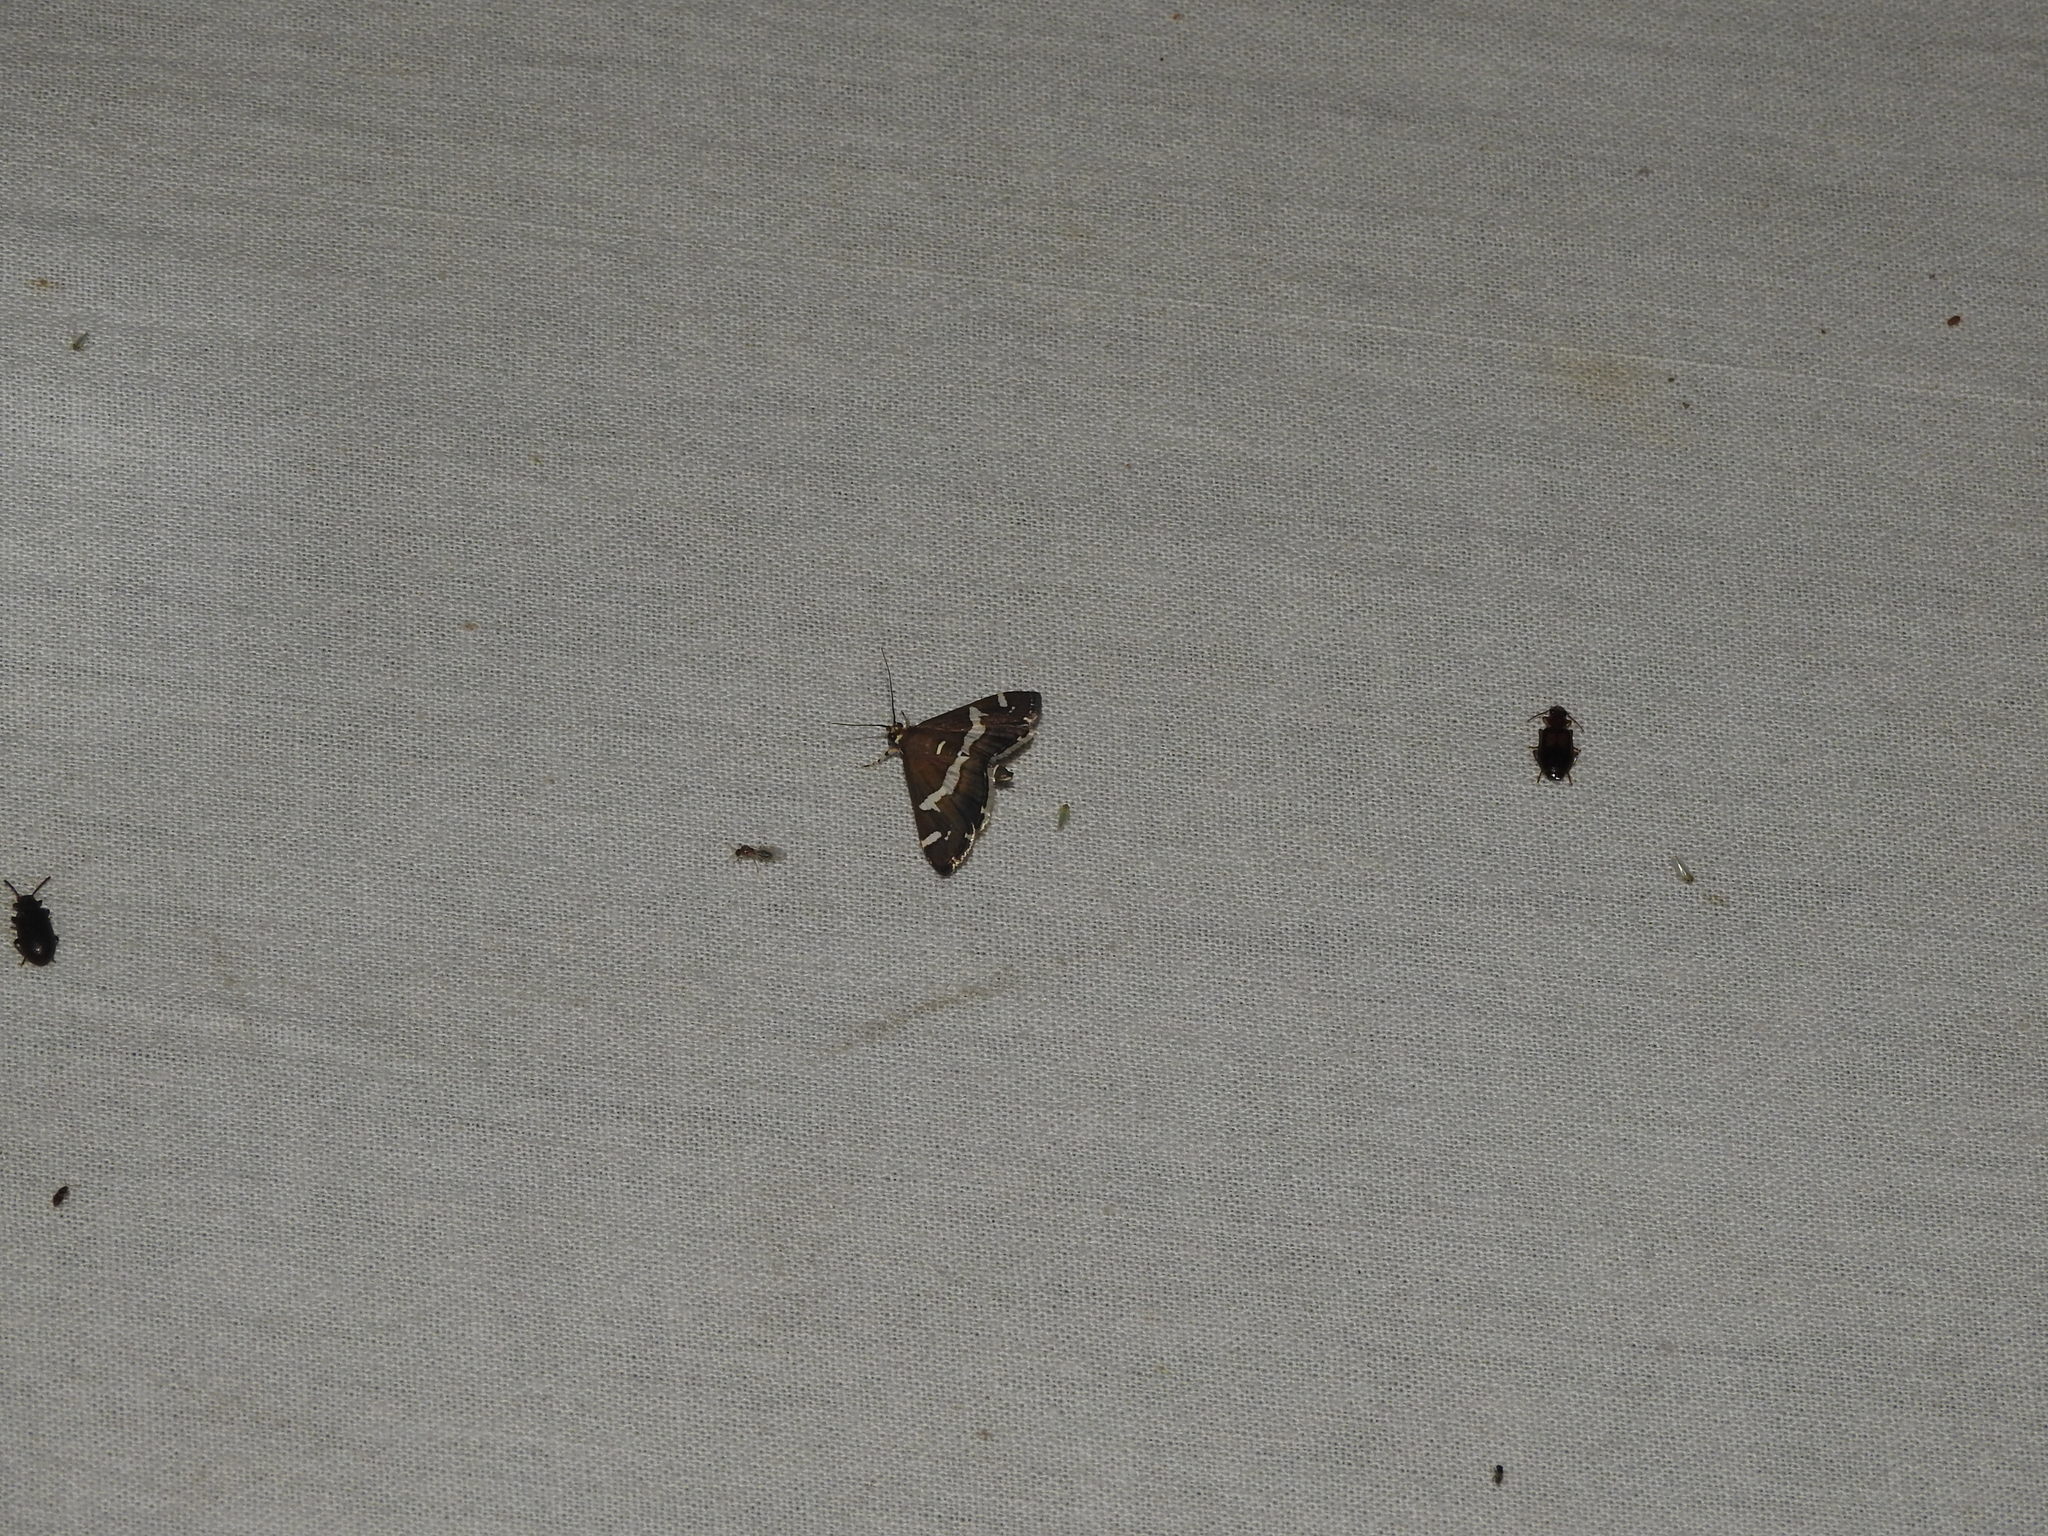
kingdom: Animalia
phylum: Arthropoda
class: Insecta
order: Lepidoptera
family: Crambidae
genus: Spoladea
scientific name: Spoladea recurvalis
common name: Beet webworm moth
